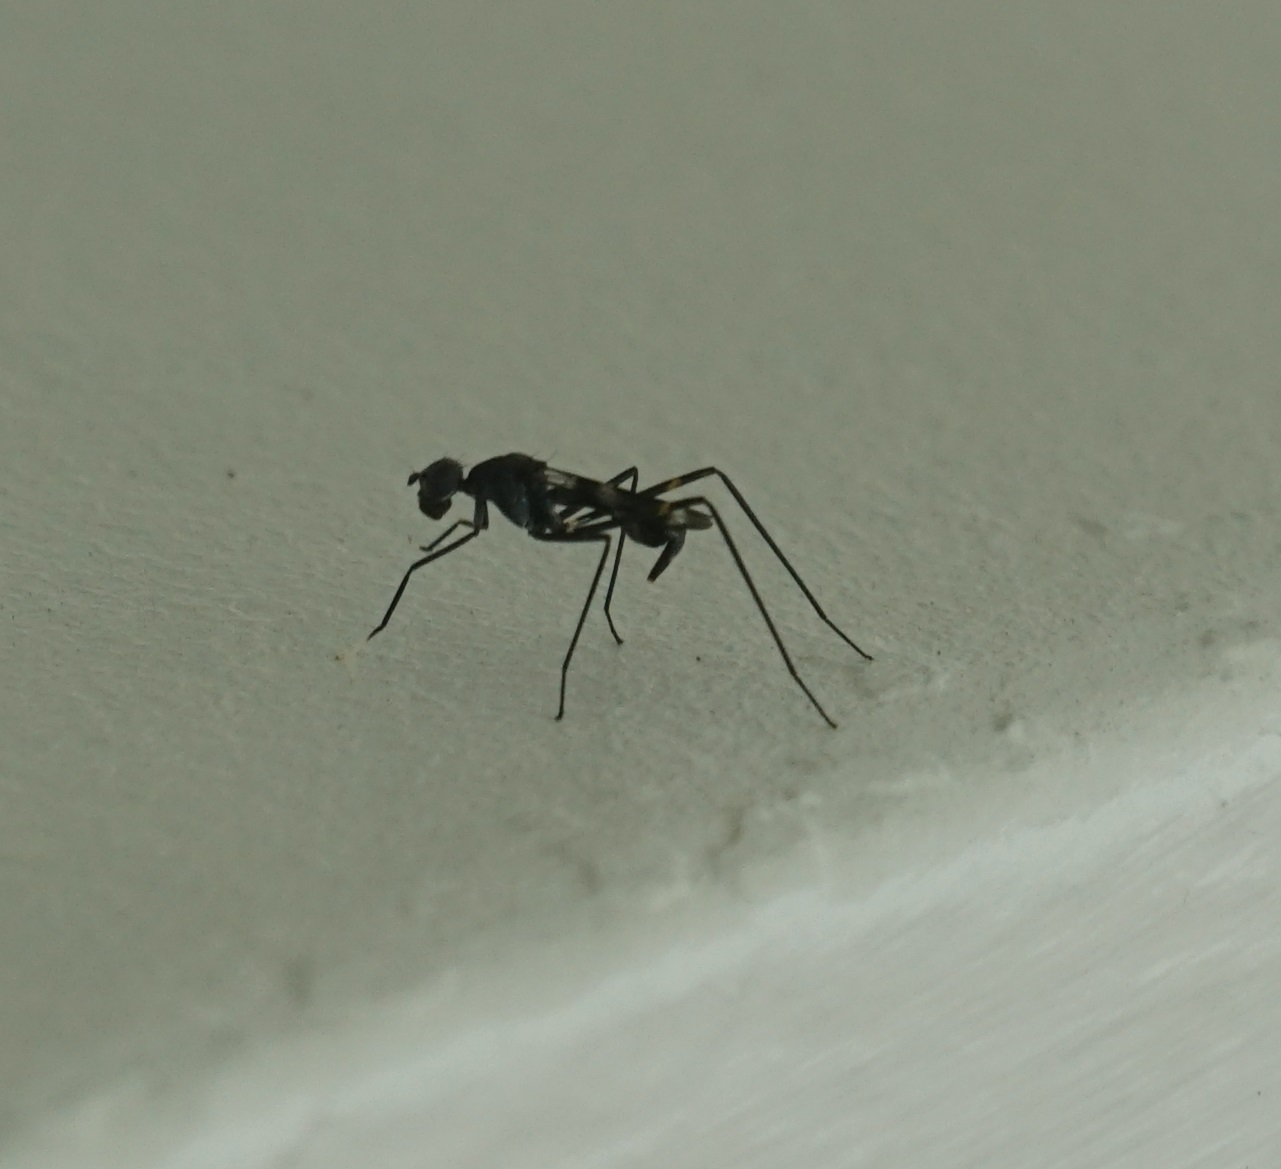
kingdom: Animalia
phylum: Arthropoda
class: Insecta
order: Diptera
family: Micropezidae
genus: Mimegralla
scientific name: Mimegralla australica
